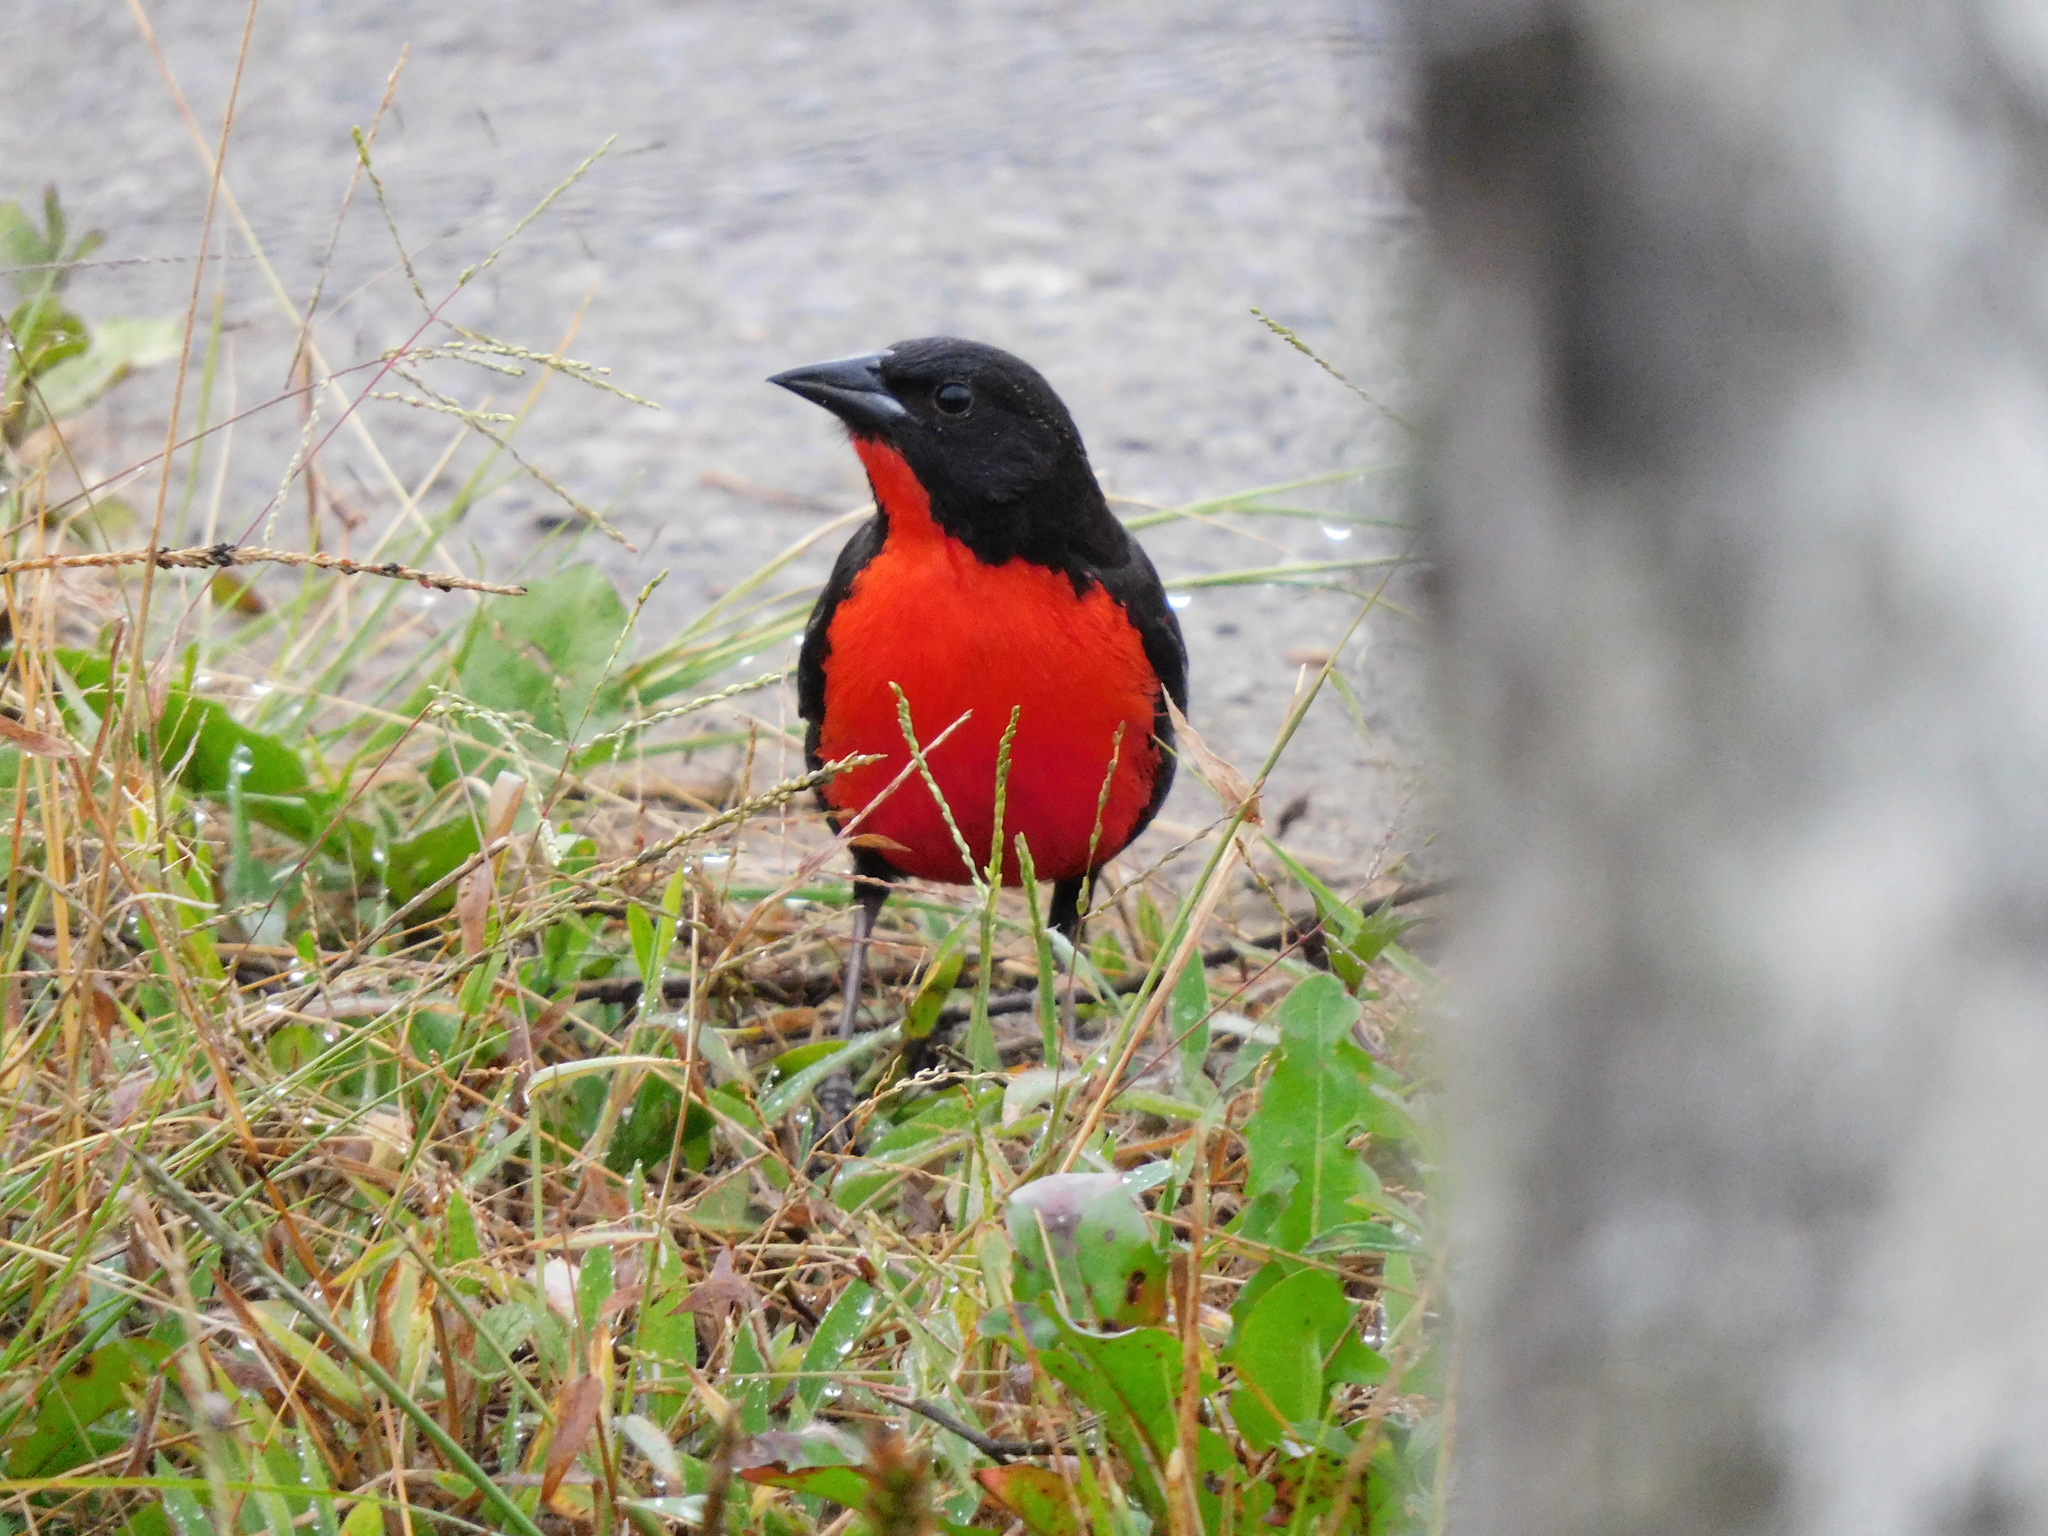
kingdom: Animalia
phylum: Chordata
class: Aves
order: Passeriformes
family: Icteridae
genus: Sturnella
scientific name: Sturnella militaris
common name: Red-breasted blackbird
